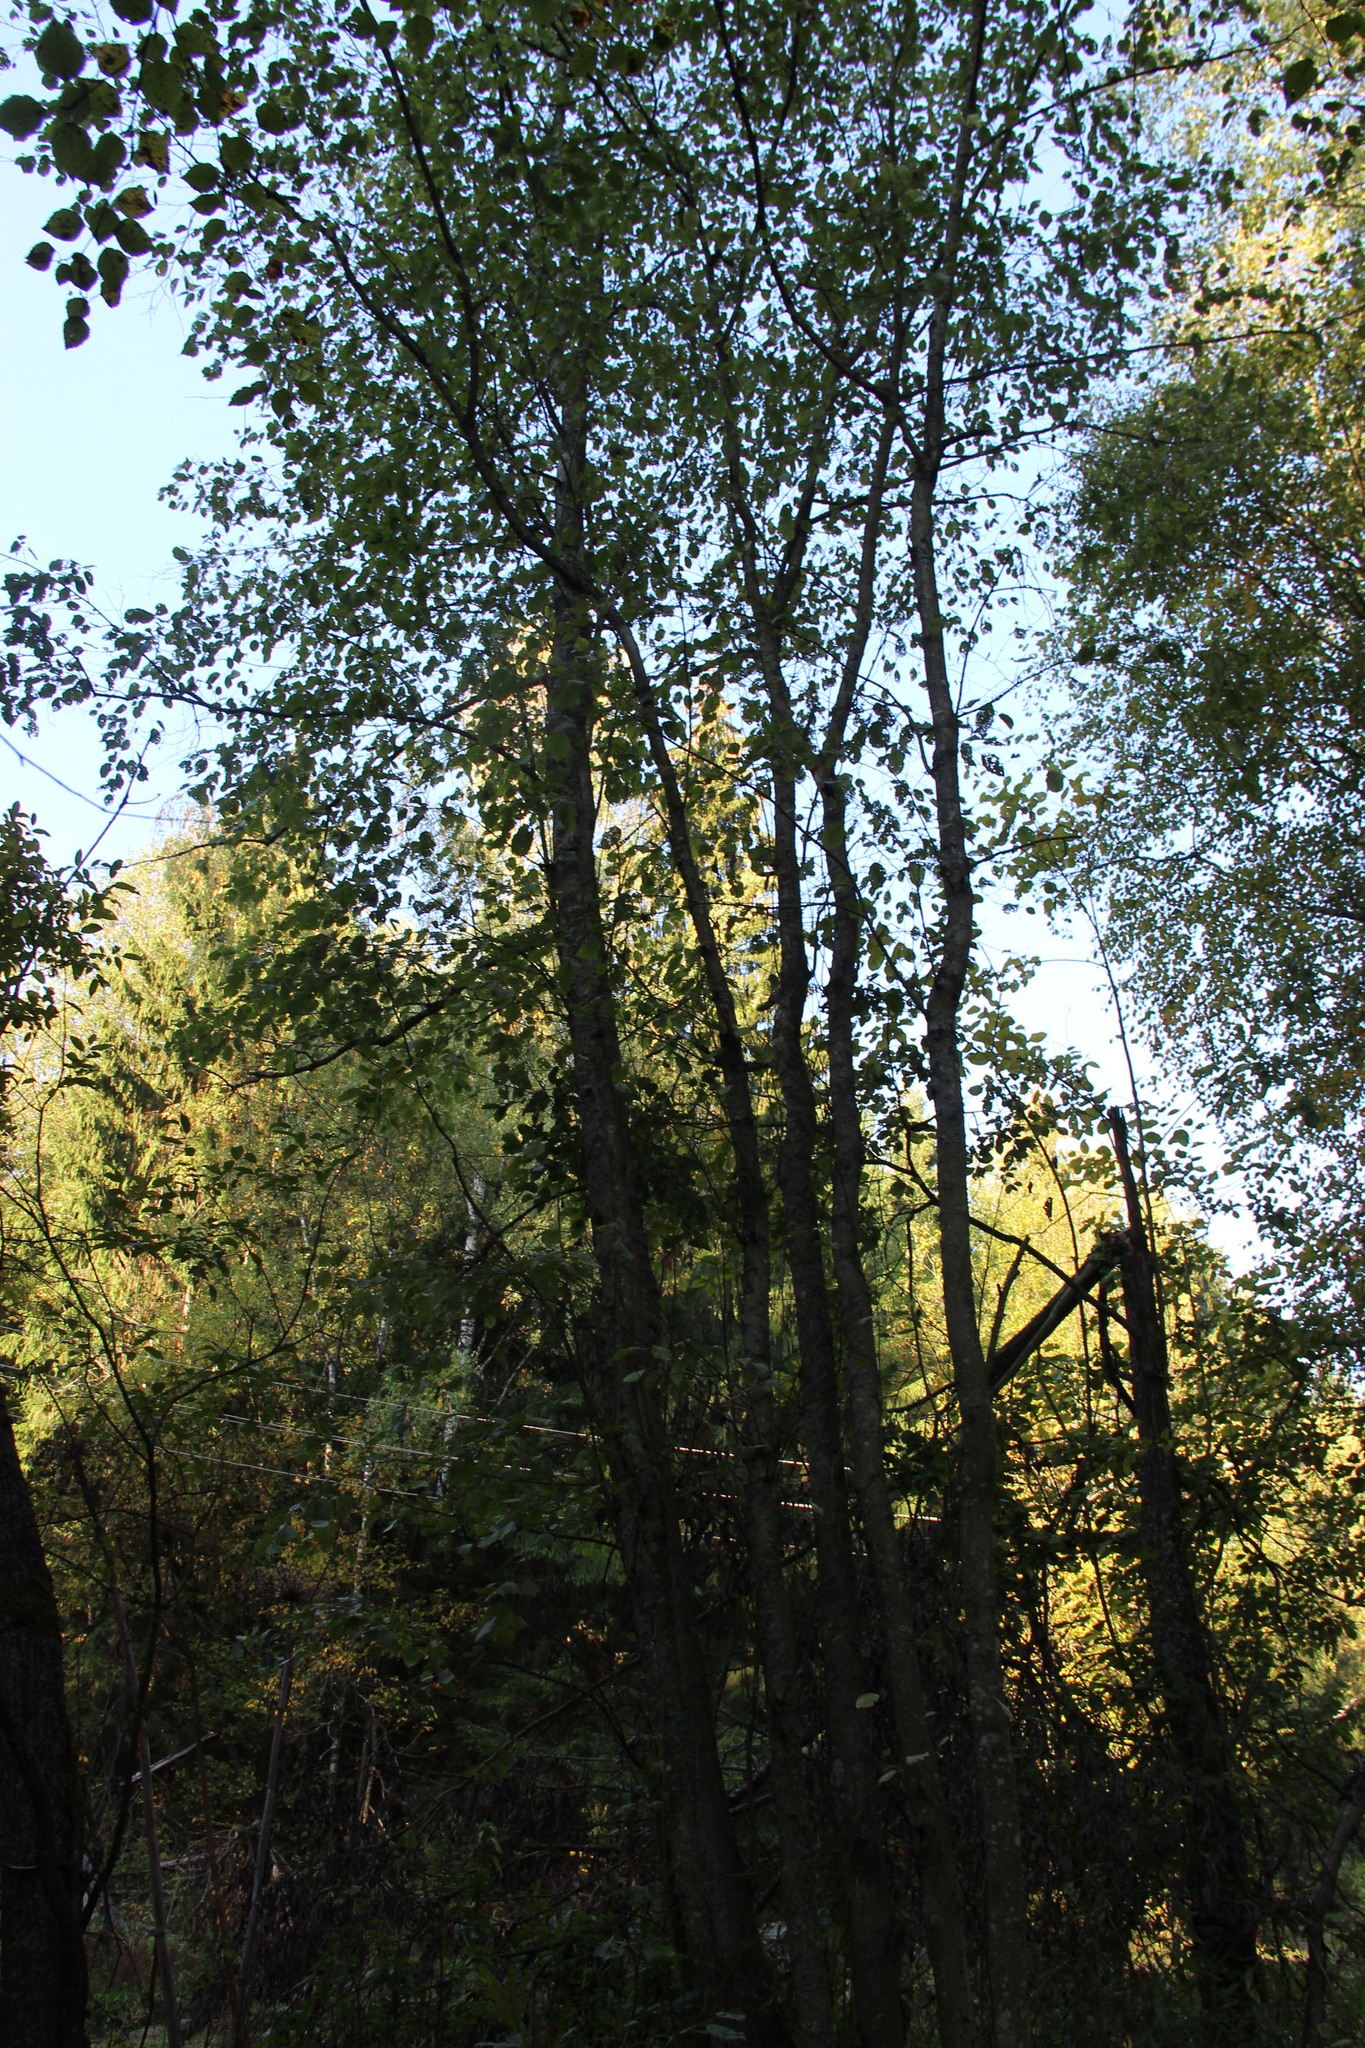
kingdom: Plantae
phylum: Tracheophyta
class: Magnoliopsida
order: Fagales
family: Betulaceae
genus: Alnus
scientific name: Alnus incana
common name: Grey alder
